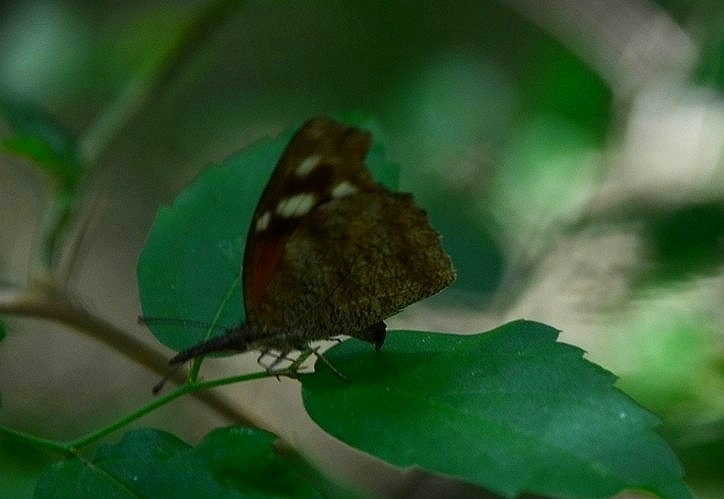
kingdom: Animalia
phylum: Arthropoda
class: Insecta
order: Lepidoptera
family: Nymphalidae
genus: Libytheana
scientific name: Libytheana carinenta
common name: American snout
